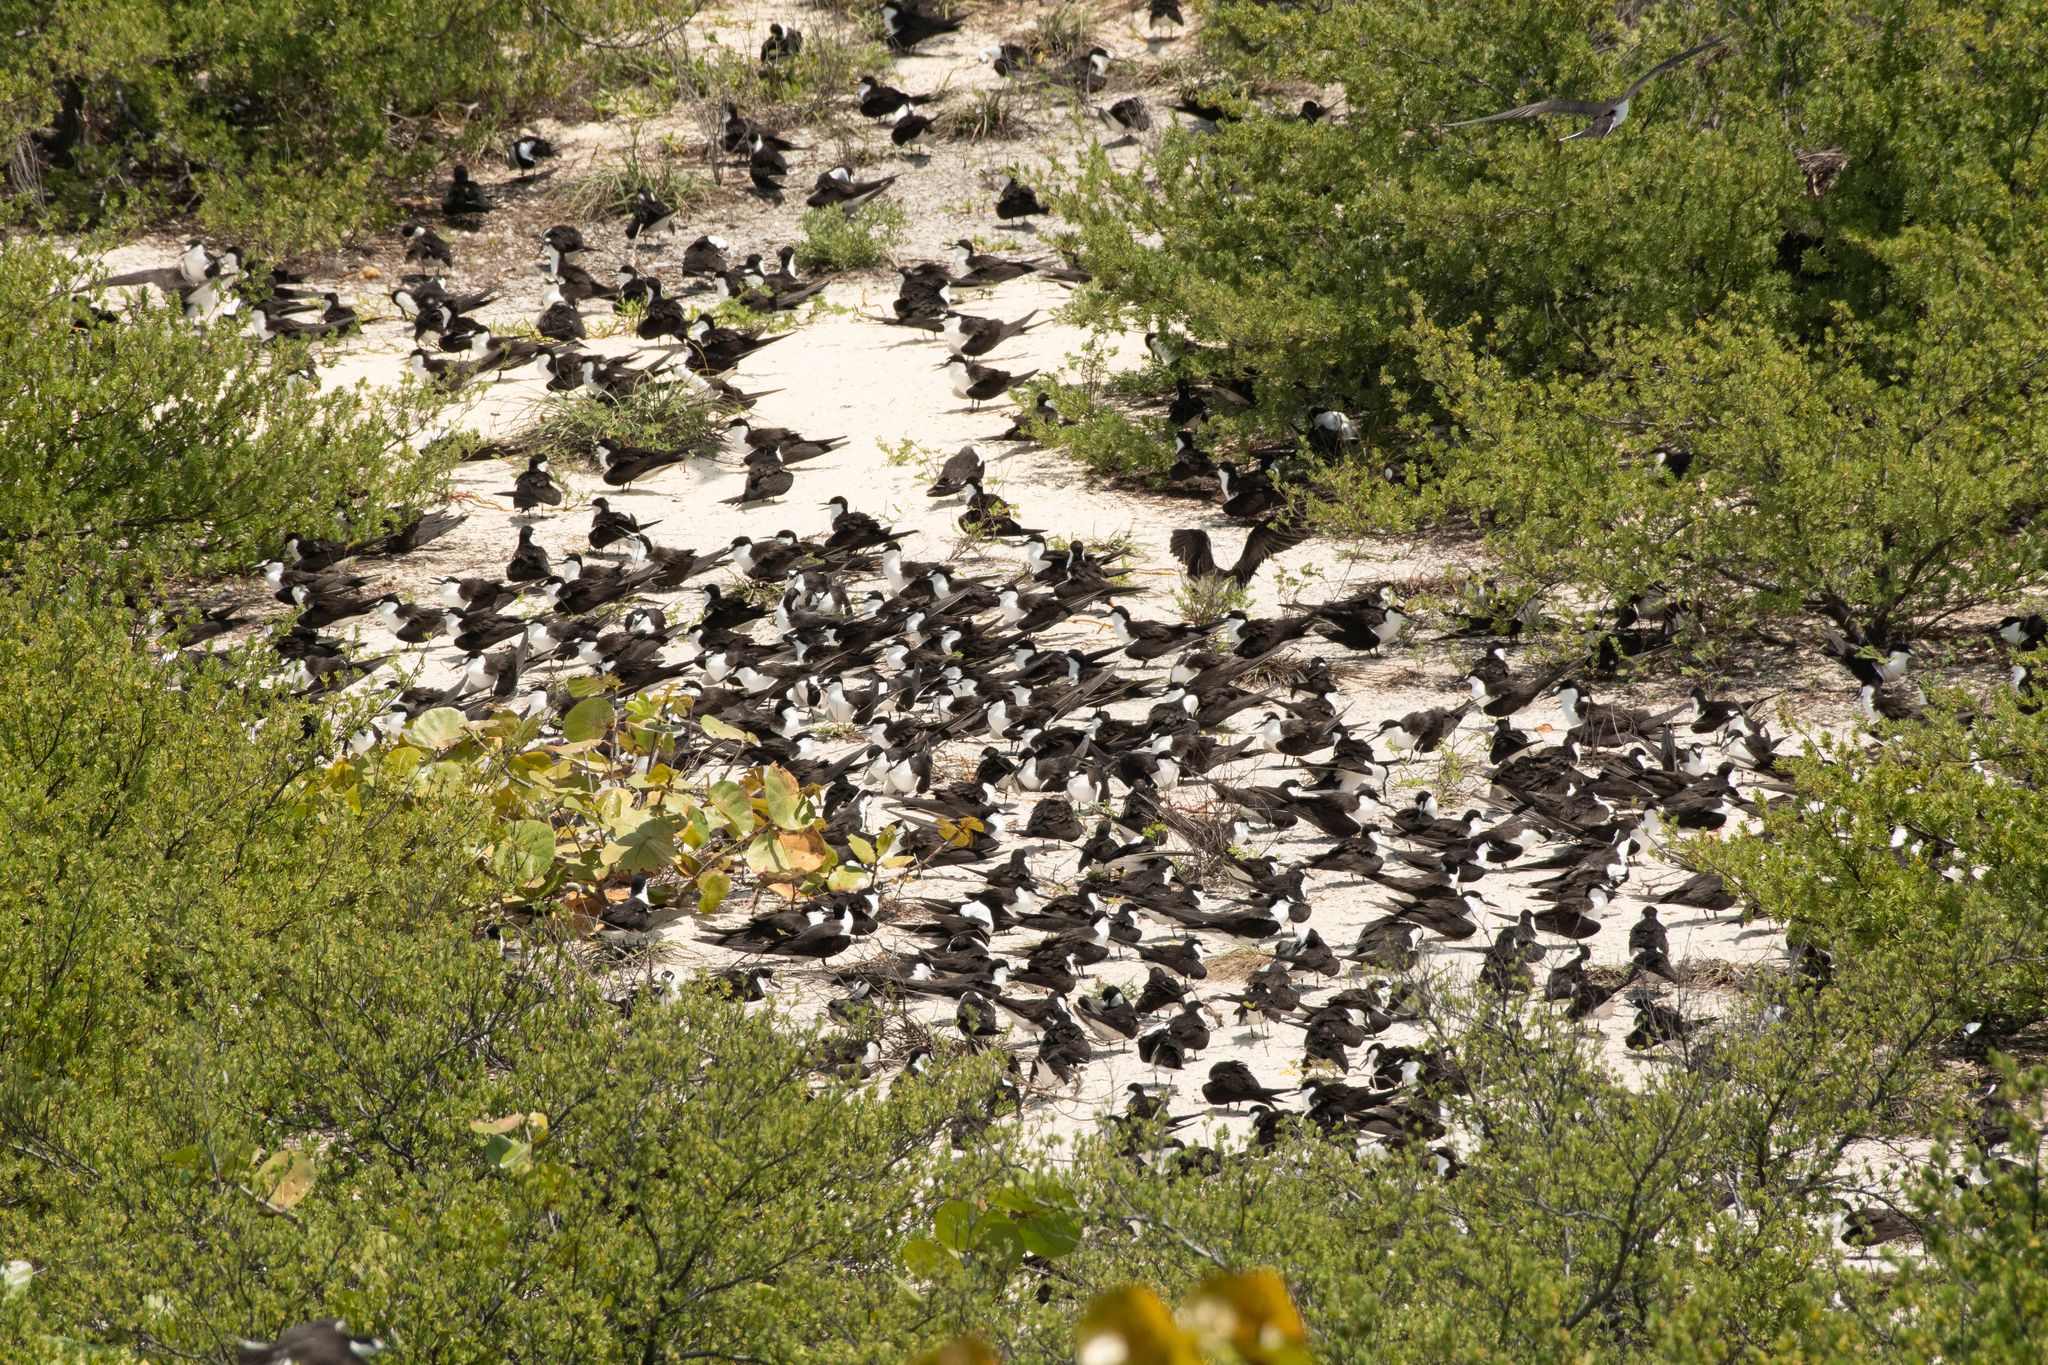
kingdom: Animalia
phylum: Chordata
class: Aves
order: Charadriiformes
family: Laridae
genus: Onychoprion
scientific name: Onychoprion fuscatus
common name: Sooty tern
